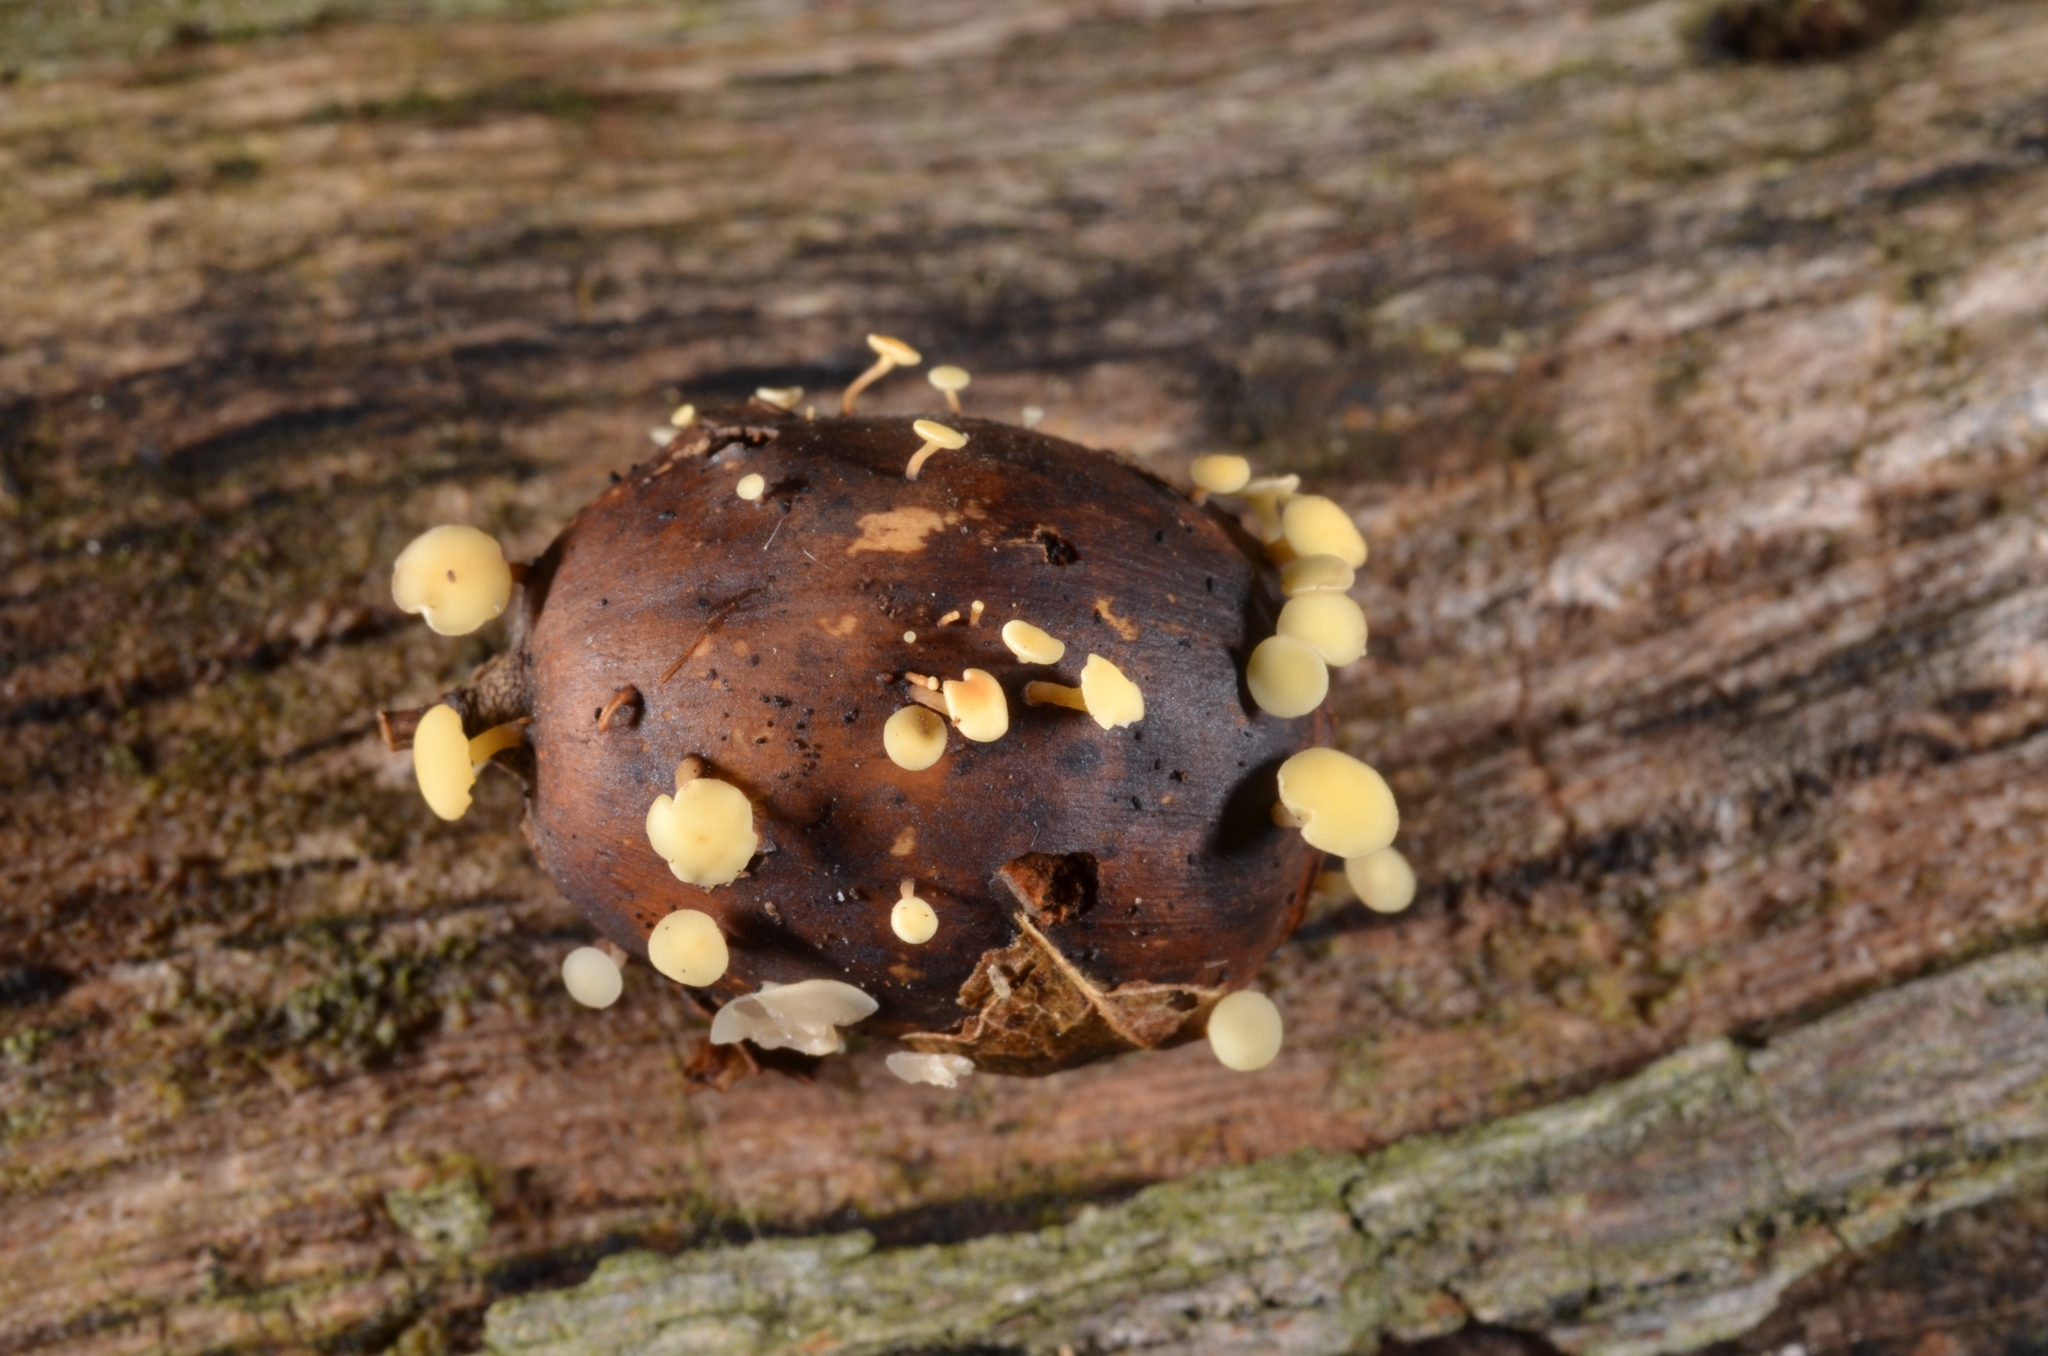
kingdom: Fungi
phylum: Ascomycota
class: Leotiomycetes
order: Helotiales
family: Helotiaceae
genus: Hymenoscyphus
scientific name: Hymenoscyphus fructigenus
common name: Nut disco
